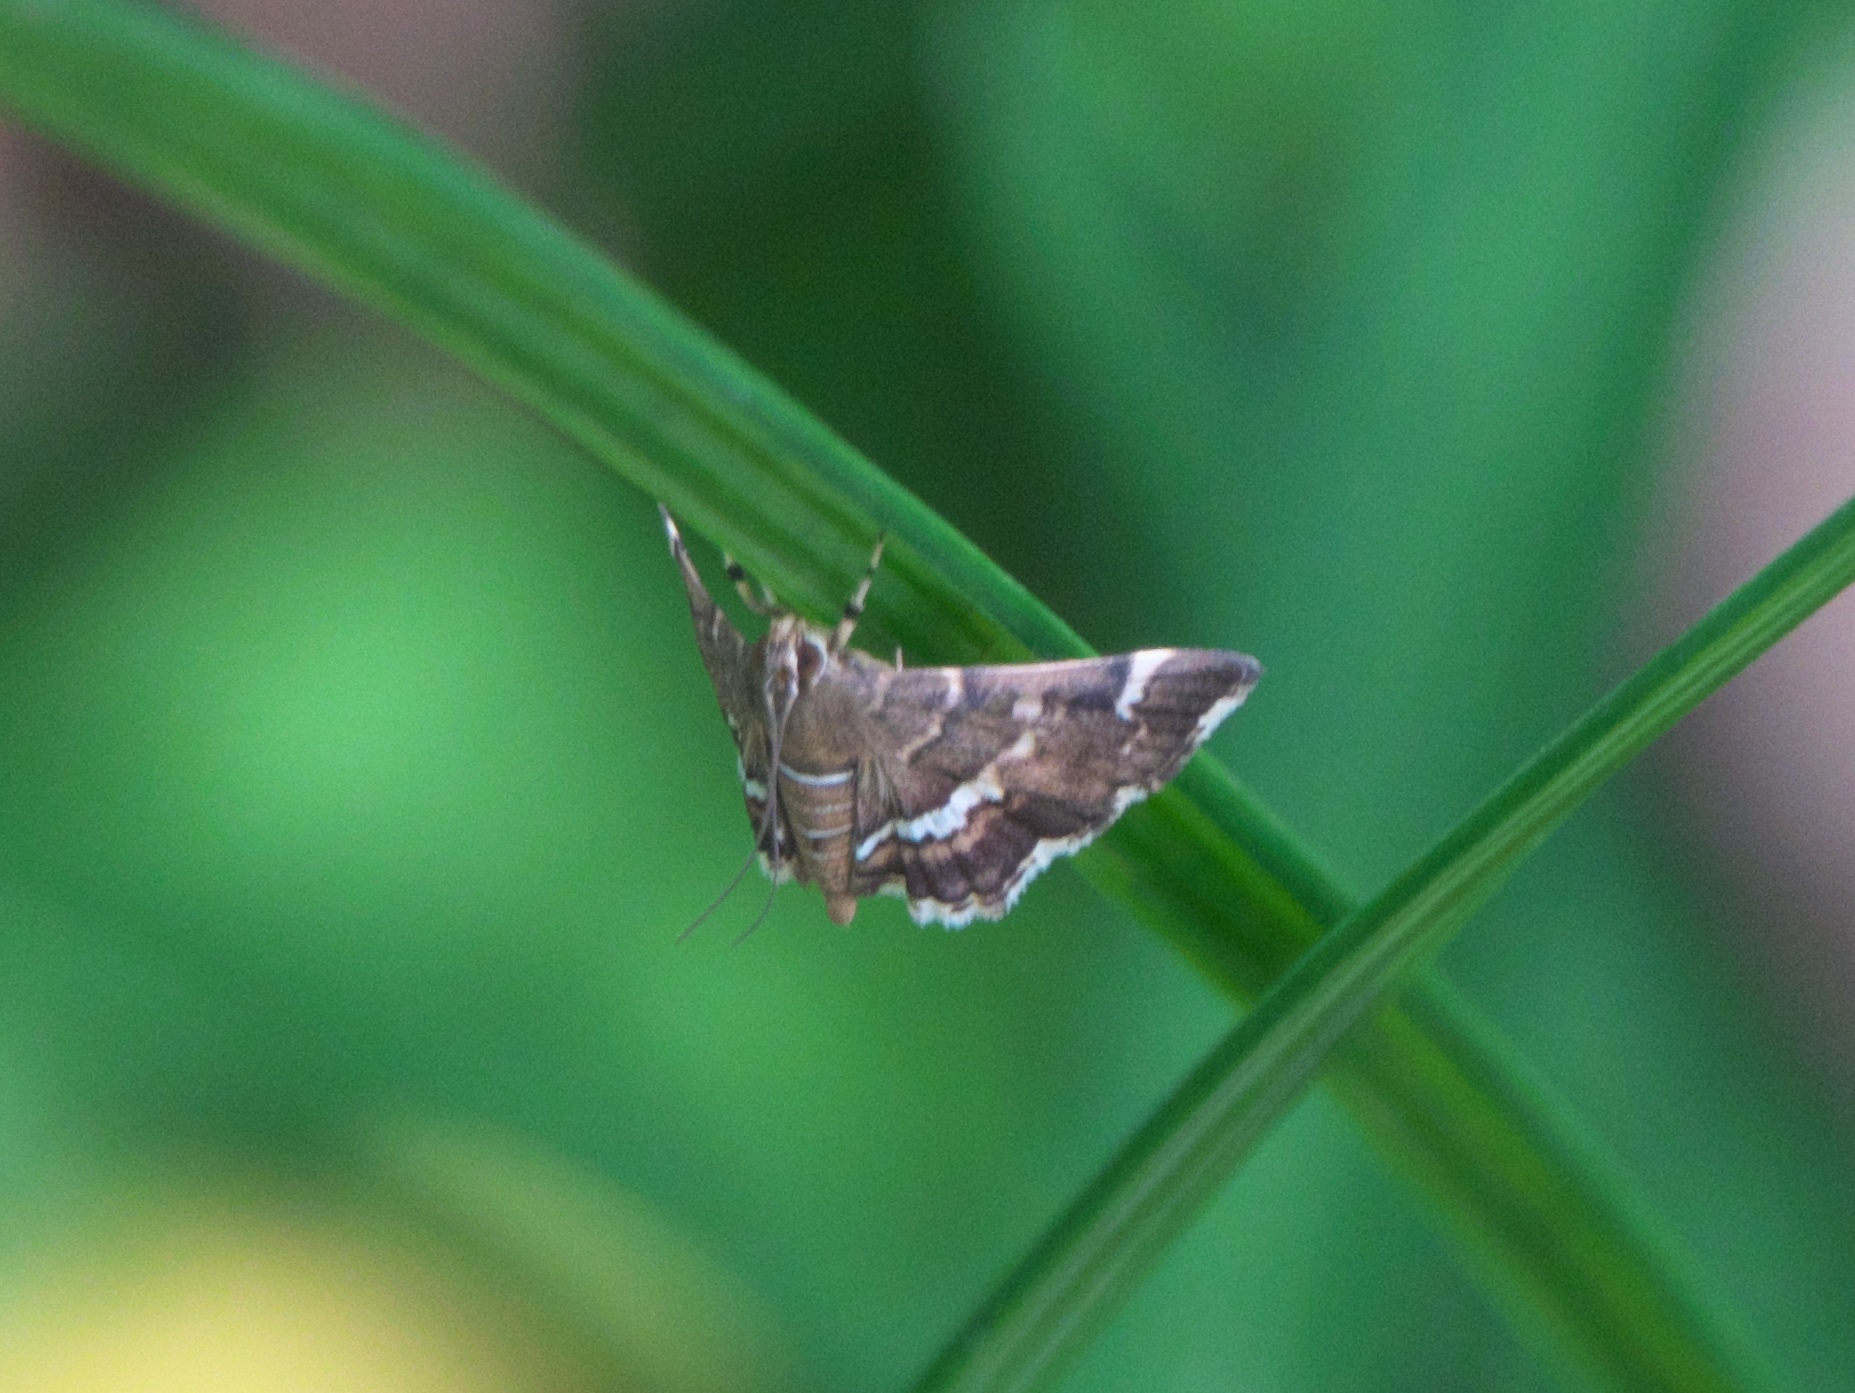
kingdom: Animalia
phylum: Arthropoda
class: Insecta
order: Lepidoptera
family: Crambidae
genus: Hymenia
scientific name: Hymenia perspectalis
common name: Spotted beet webworm
